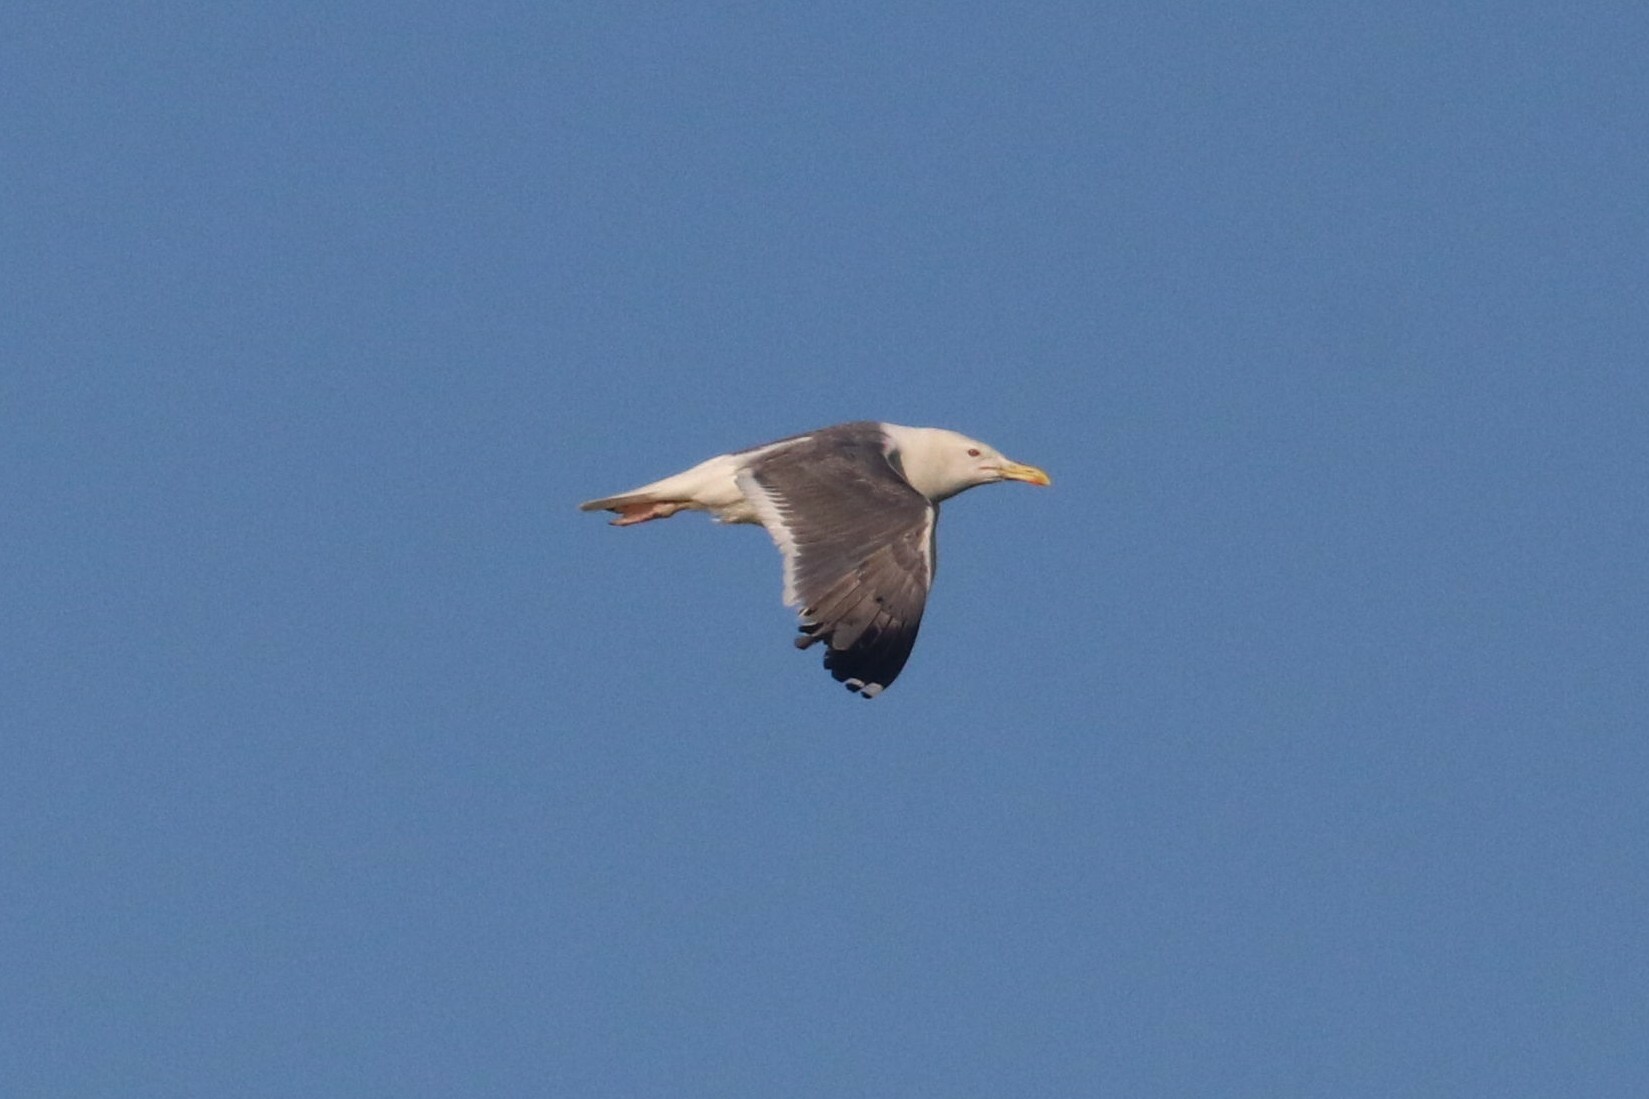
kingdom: Animalia
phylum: Chordata
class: Aves
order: Charadriiformes
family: Laridae
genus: Larus
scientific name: Larus fuscus
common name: Lesser black-backed gull
